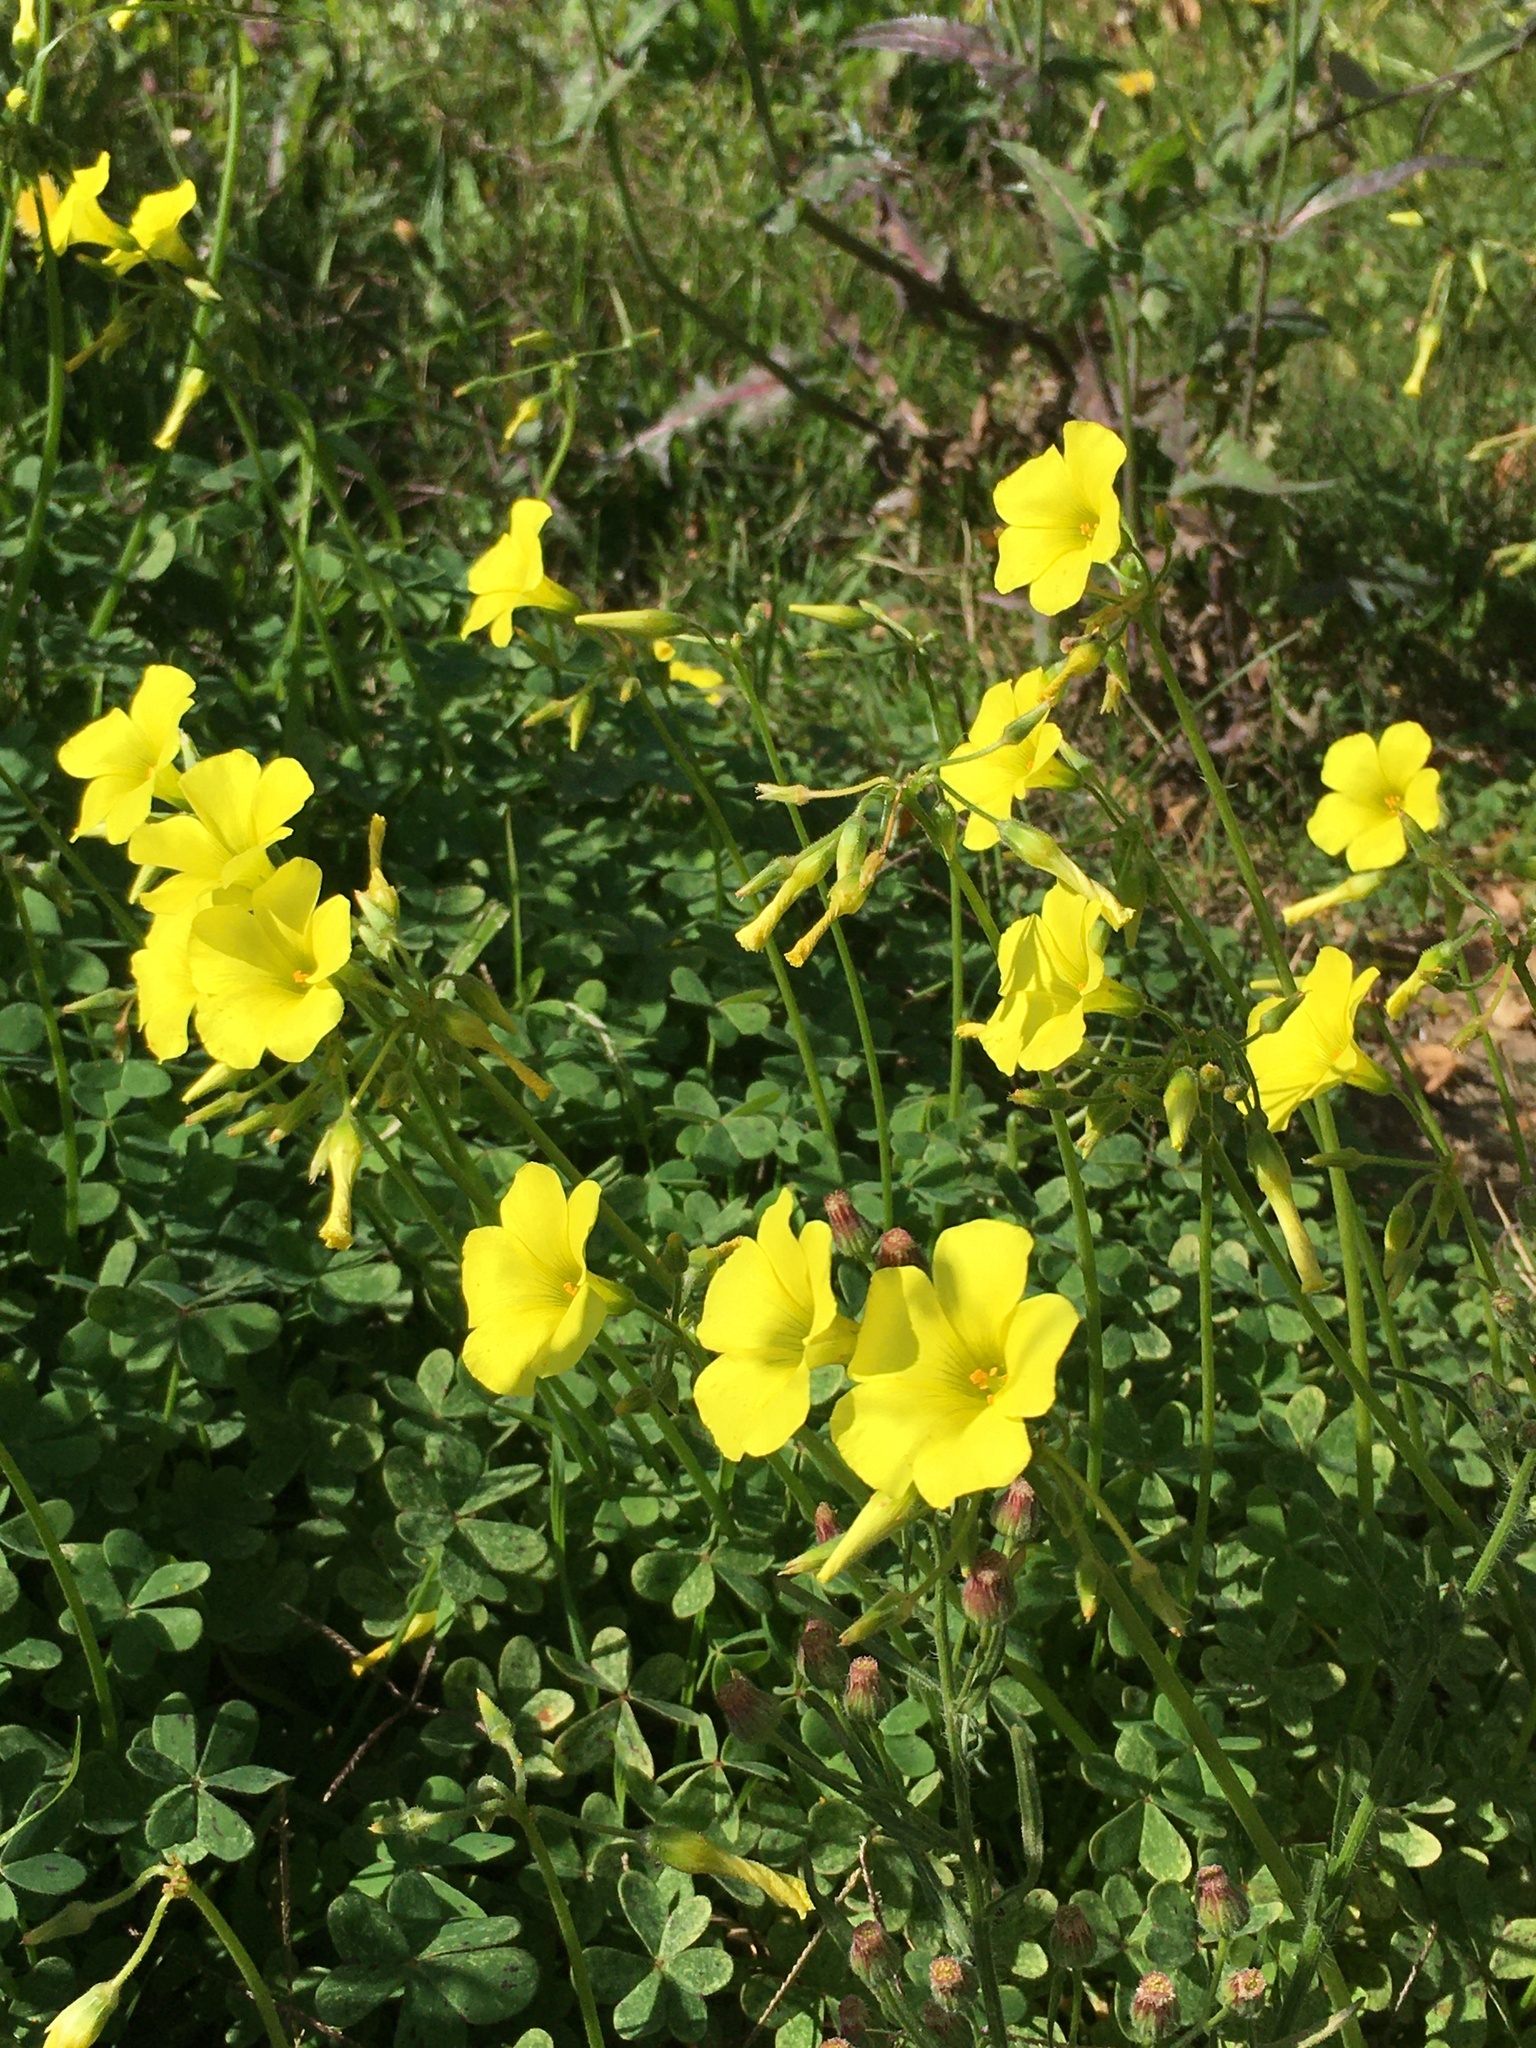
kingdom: Plantae
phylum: Tracheophyta
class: Magnoliopsida
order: Oxalidales
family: Oxalidaceae
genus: Oxalis
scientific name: Oxalis pes-caprae
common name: Bermuda-buttercup
